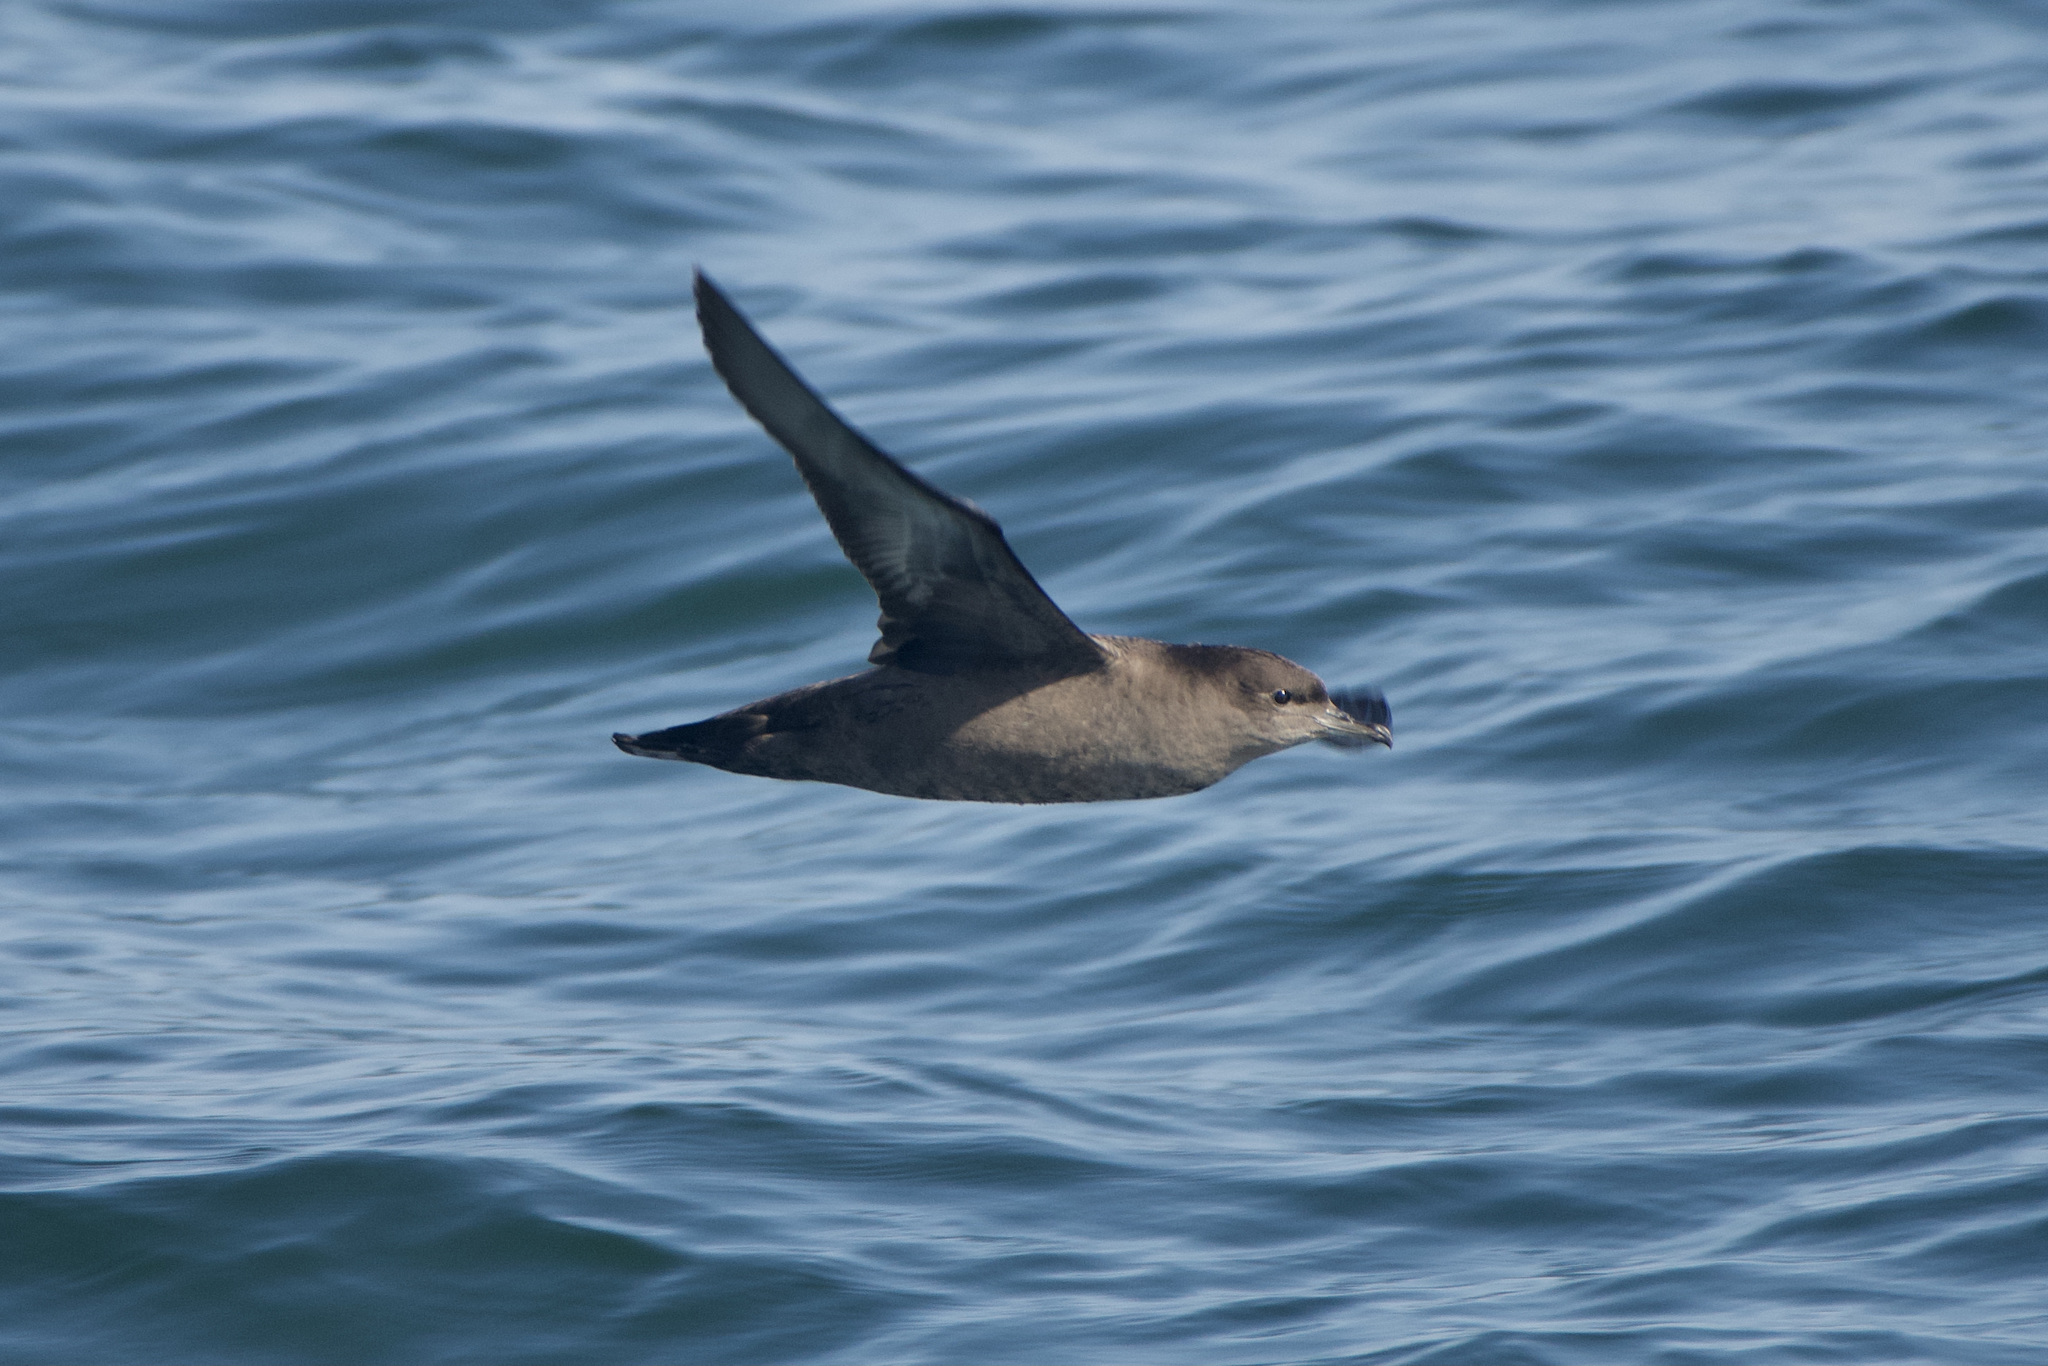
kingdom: Animalia
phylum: Chordata
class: Aves
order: Procellariiformes
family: Procellariidae
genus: Puffinus
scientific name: Puffinus griseus
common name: Sooty shearwater
